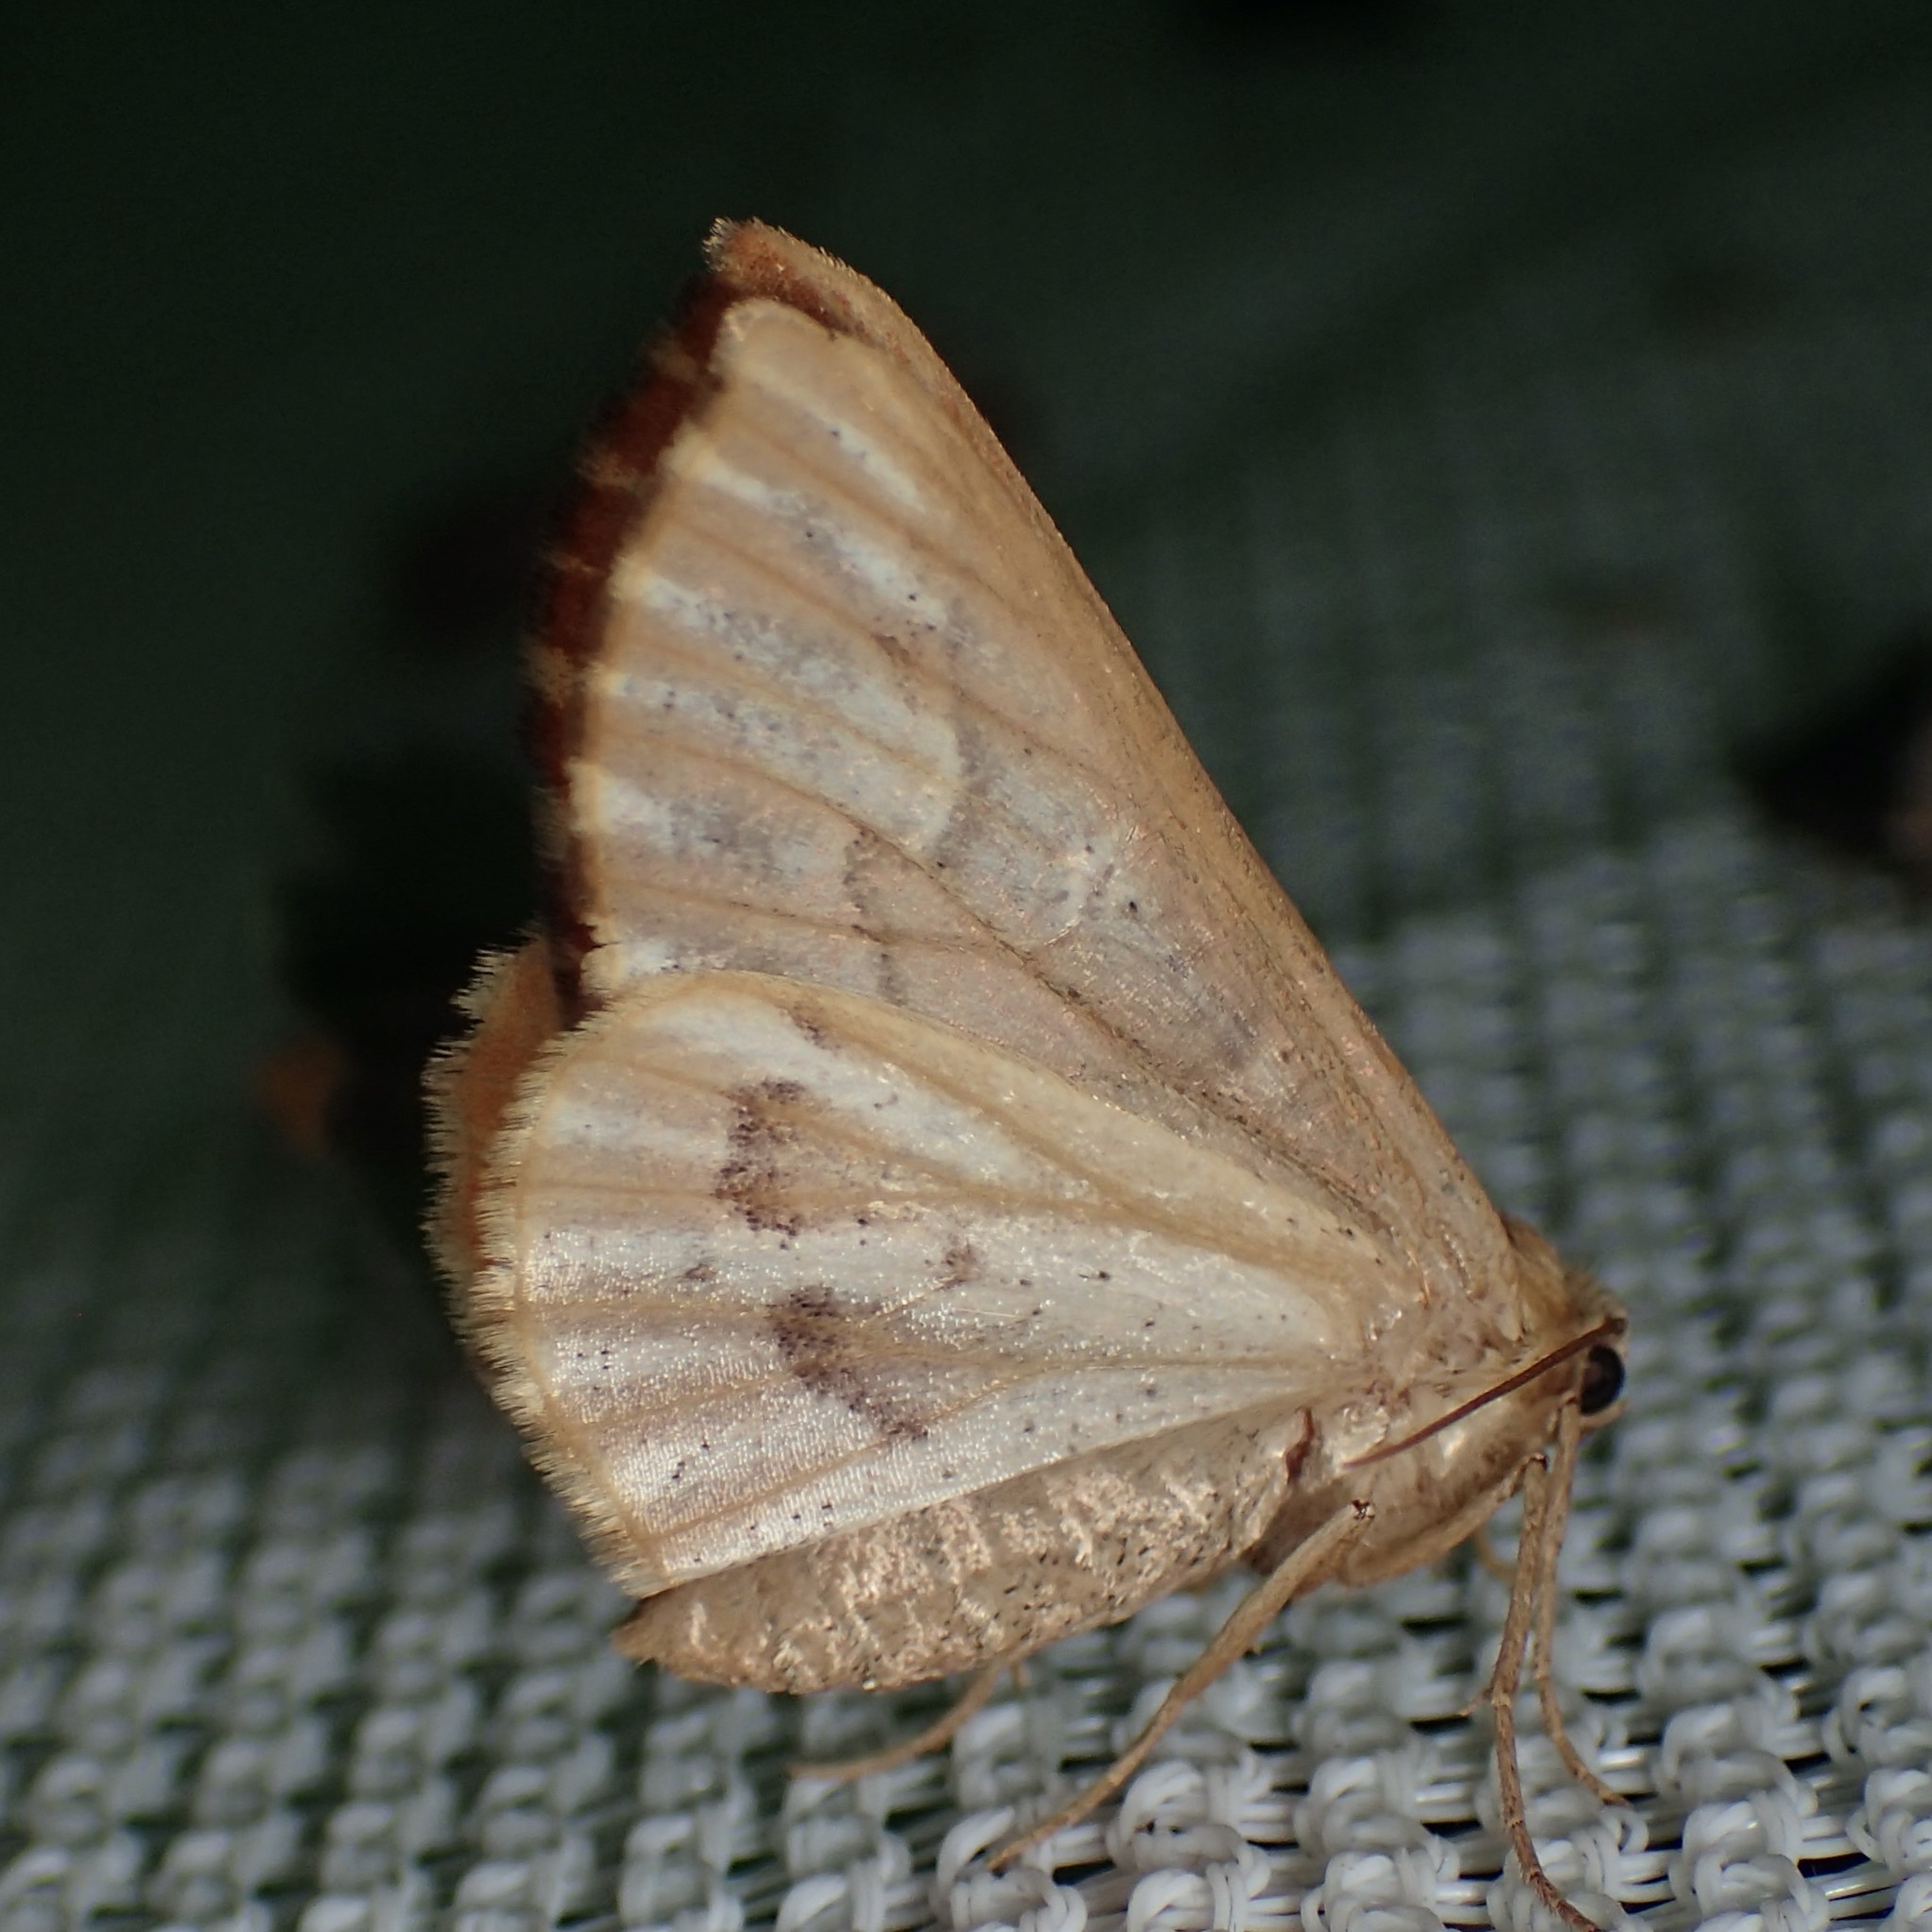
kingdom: Animalia
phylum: Arthropoda
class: Insecta
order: Lepidoptera
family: Geometridae
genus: Caripeta
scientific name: Caripeta aequaliaria
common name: Red girdle moth
